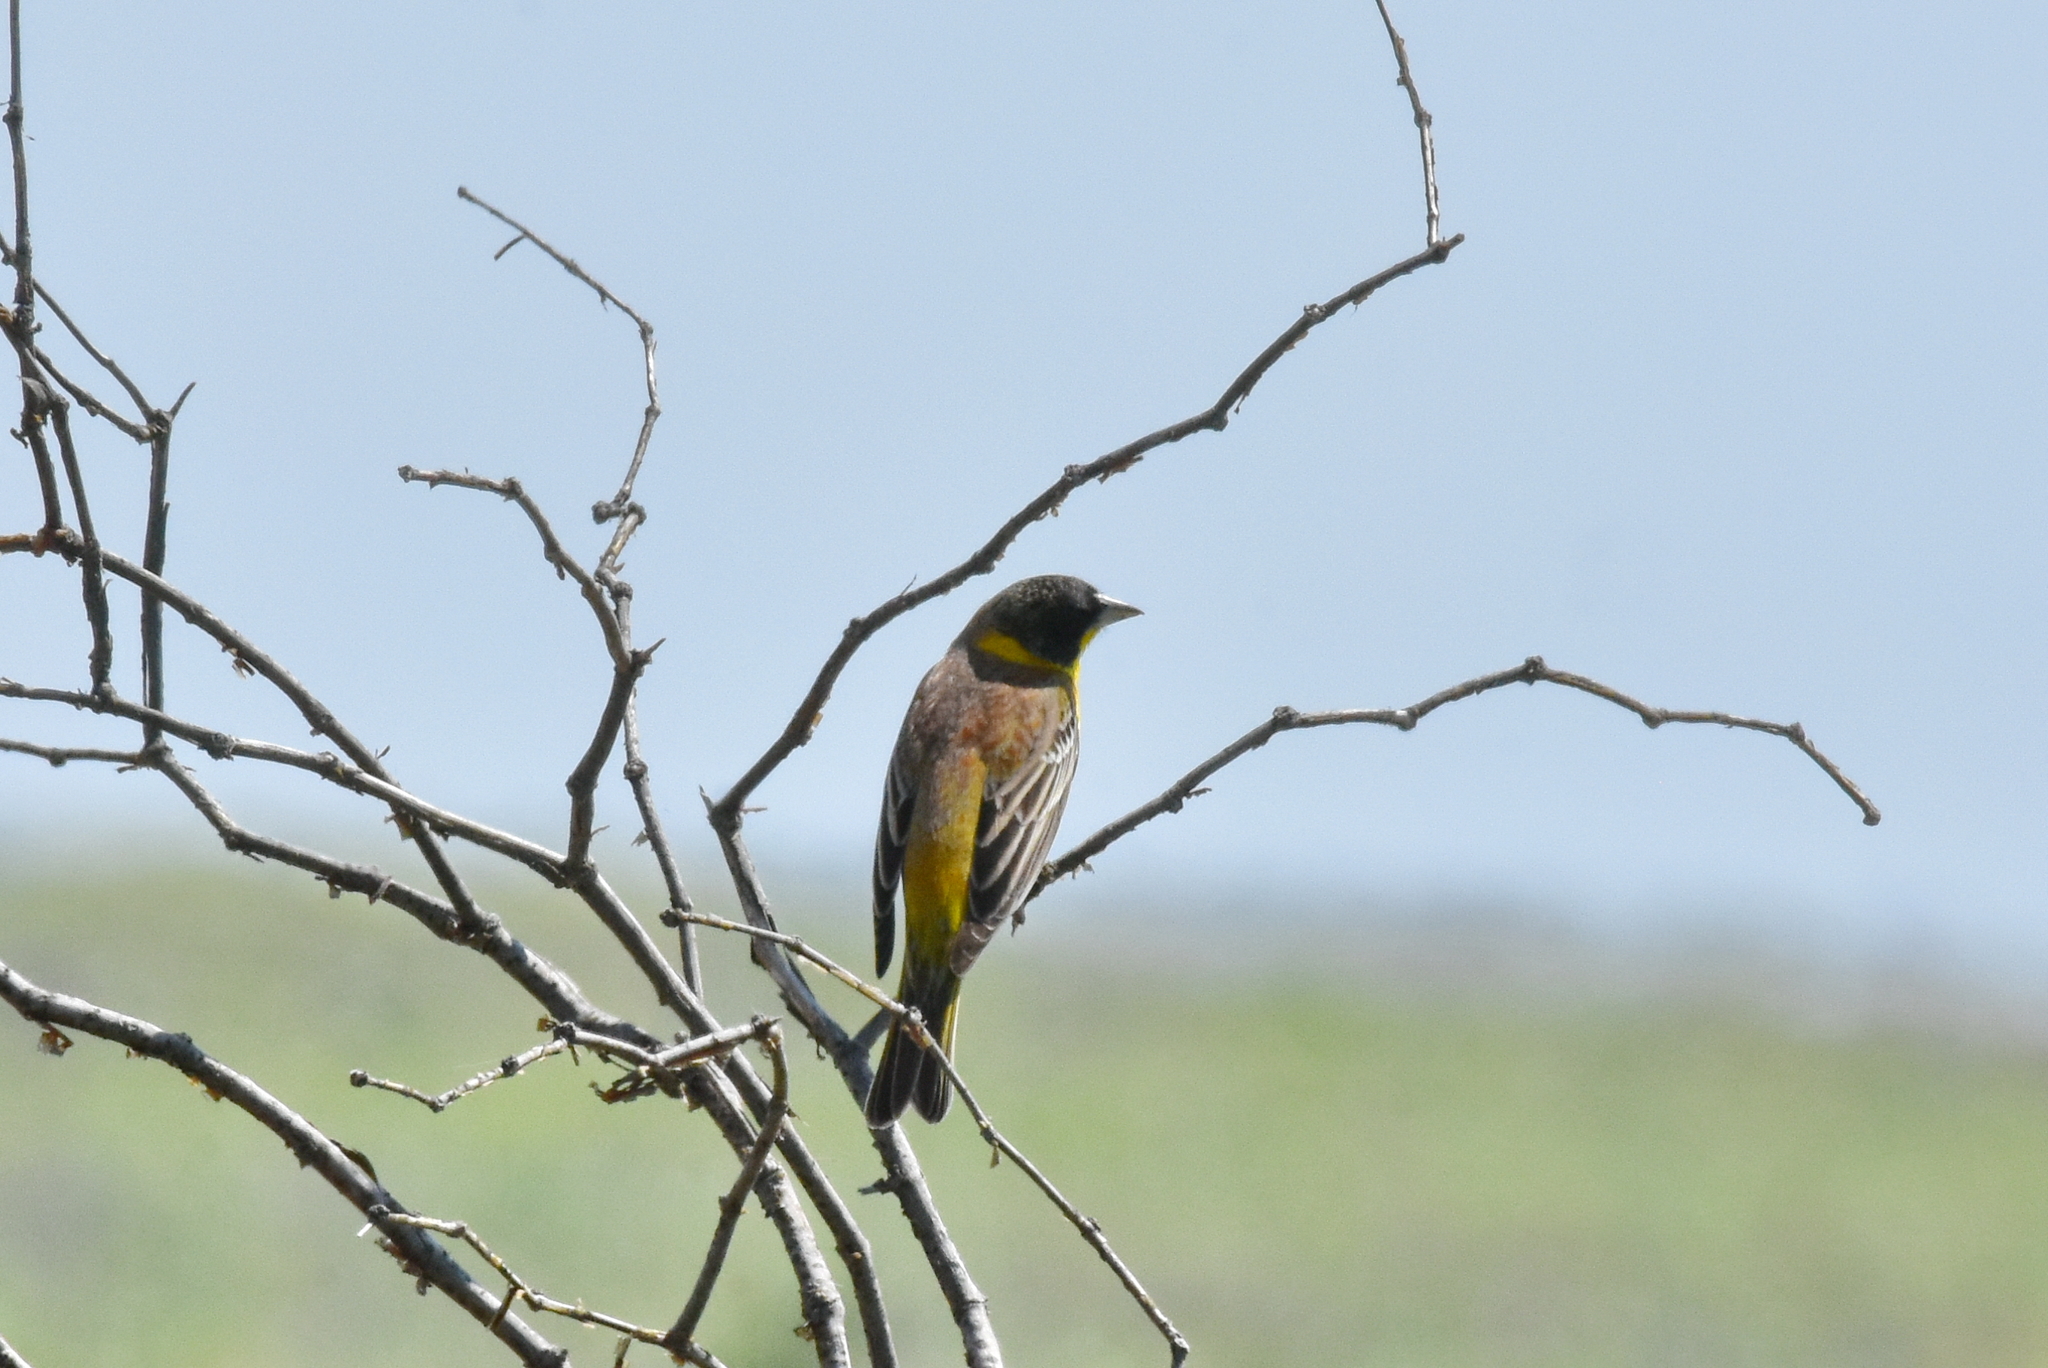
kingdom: Animalia
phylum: Chordata
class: Aves
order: Passeriformes
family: Emberizidae
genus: Emberiza
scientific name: Emberiza melanocephala
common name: Black-headed bunting
